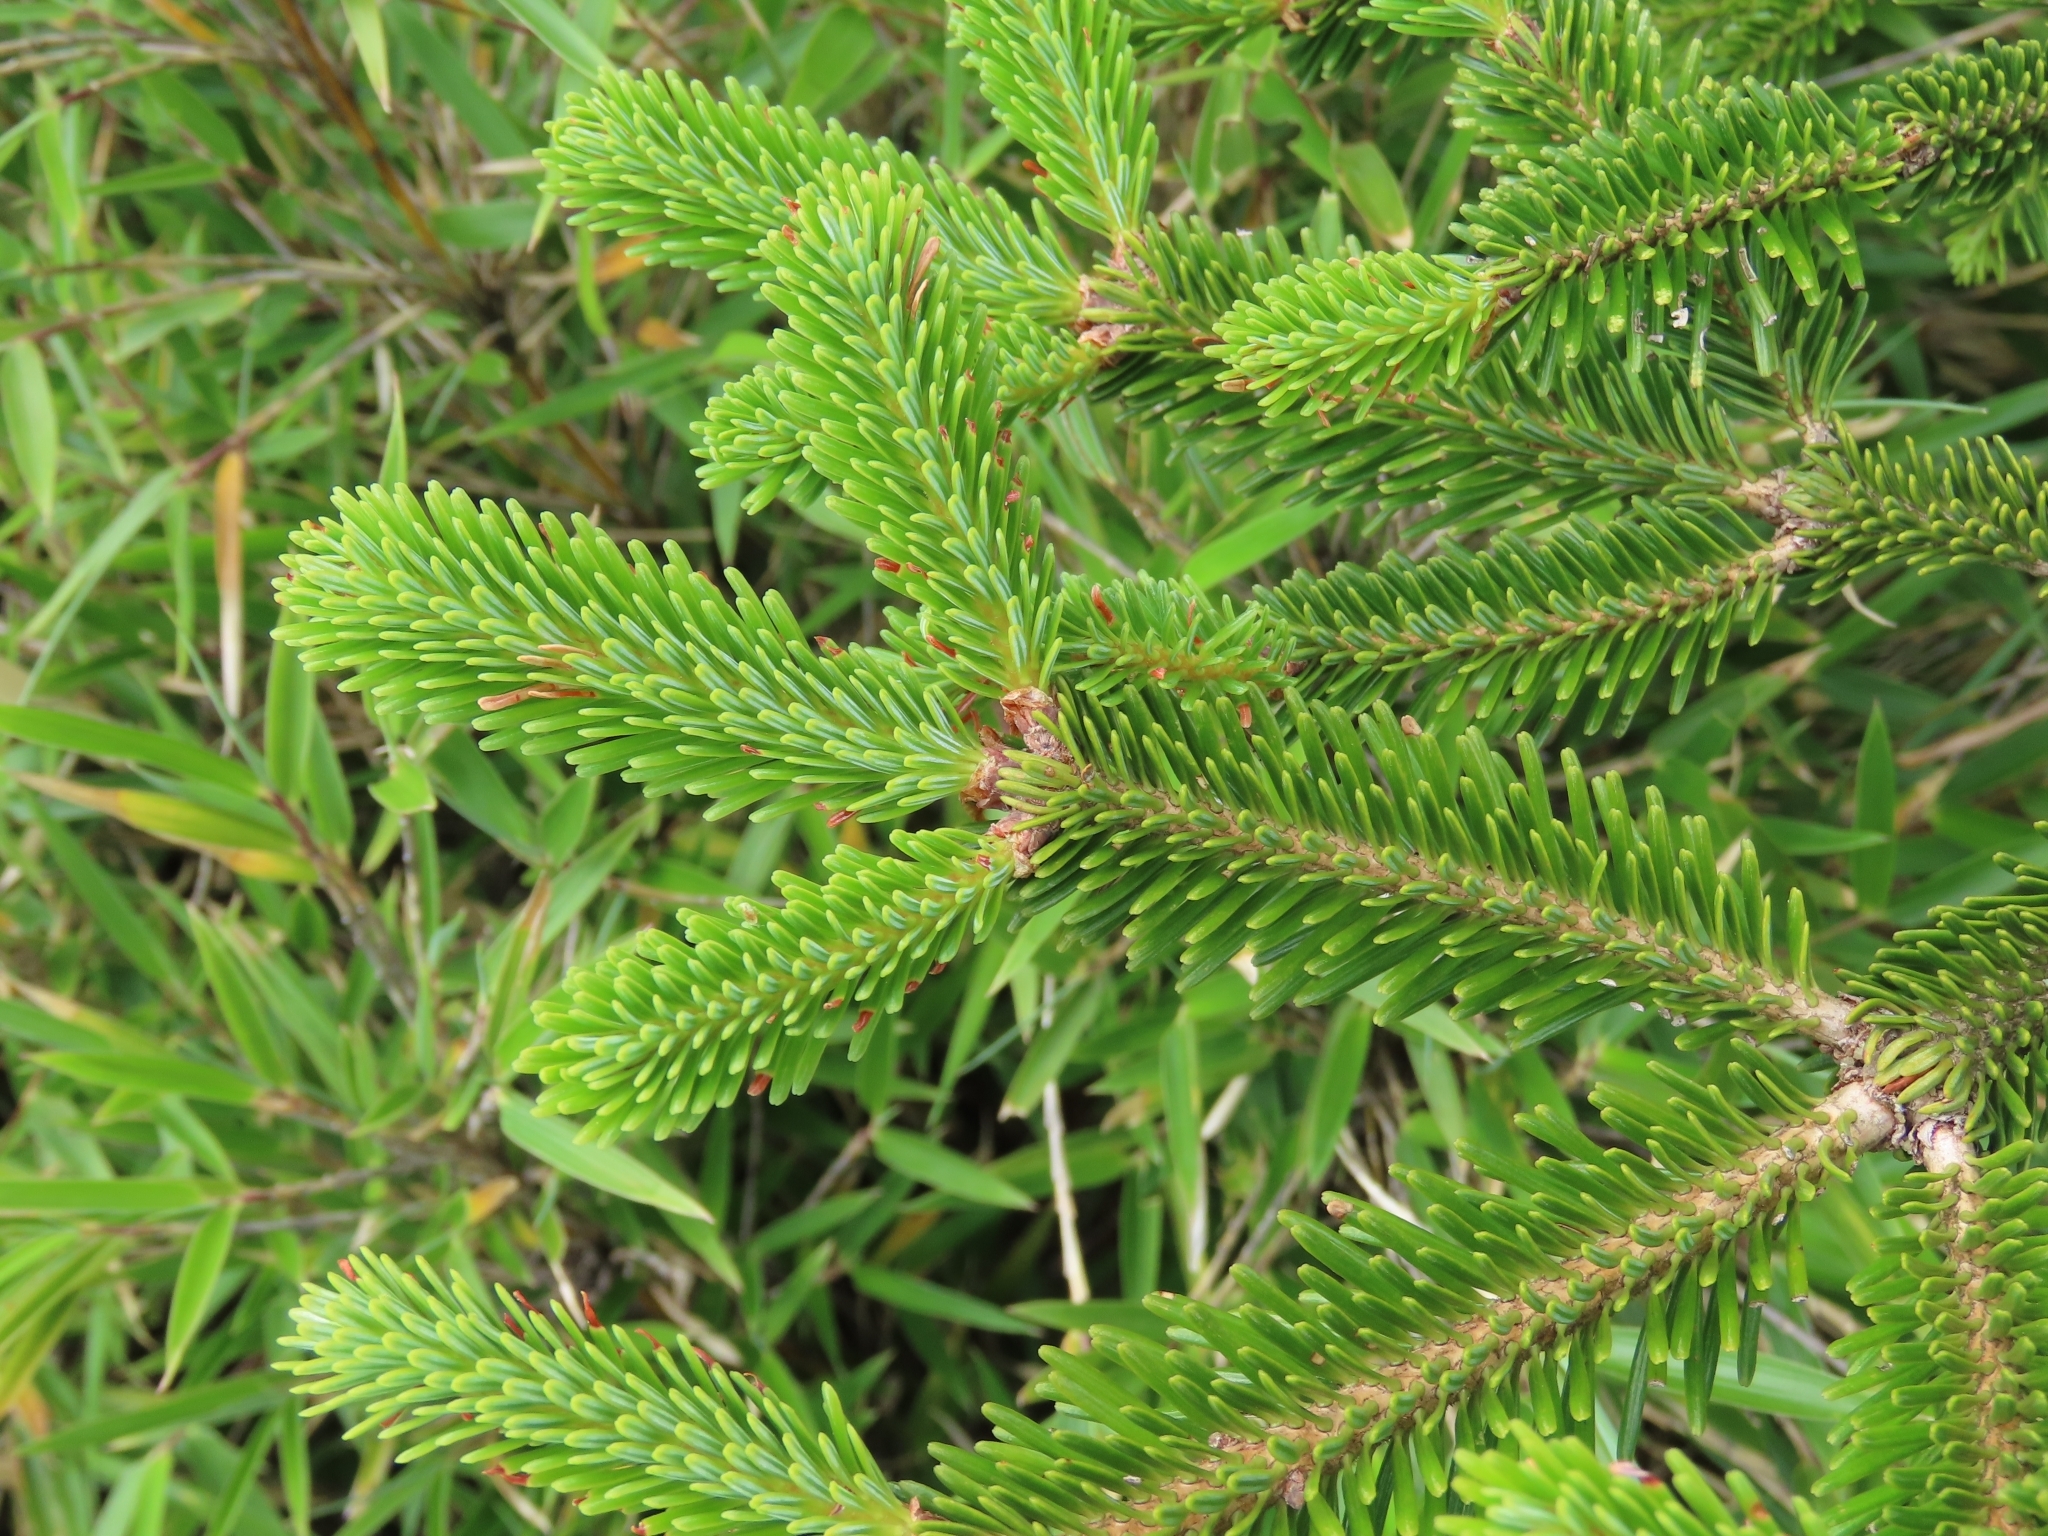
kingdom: Plantae
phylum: Tracheophyta
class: Pinopsida
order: Pinales
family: Pinaceae
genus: Abies
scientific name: Abies kawakamii
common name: Taiwan fir
